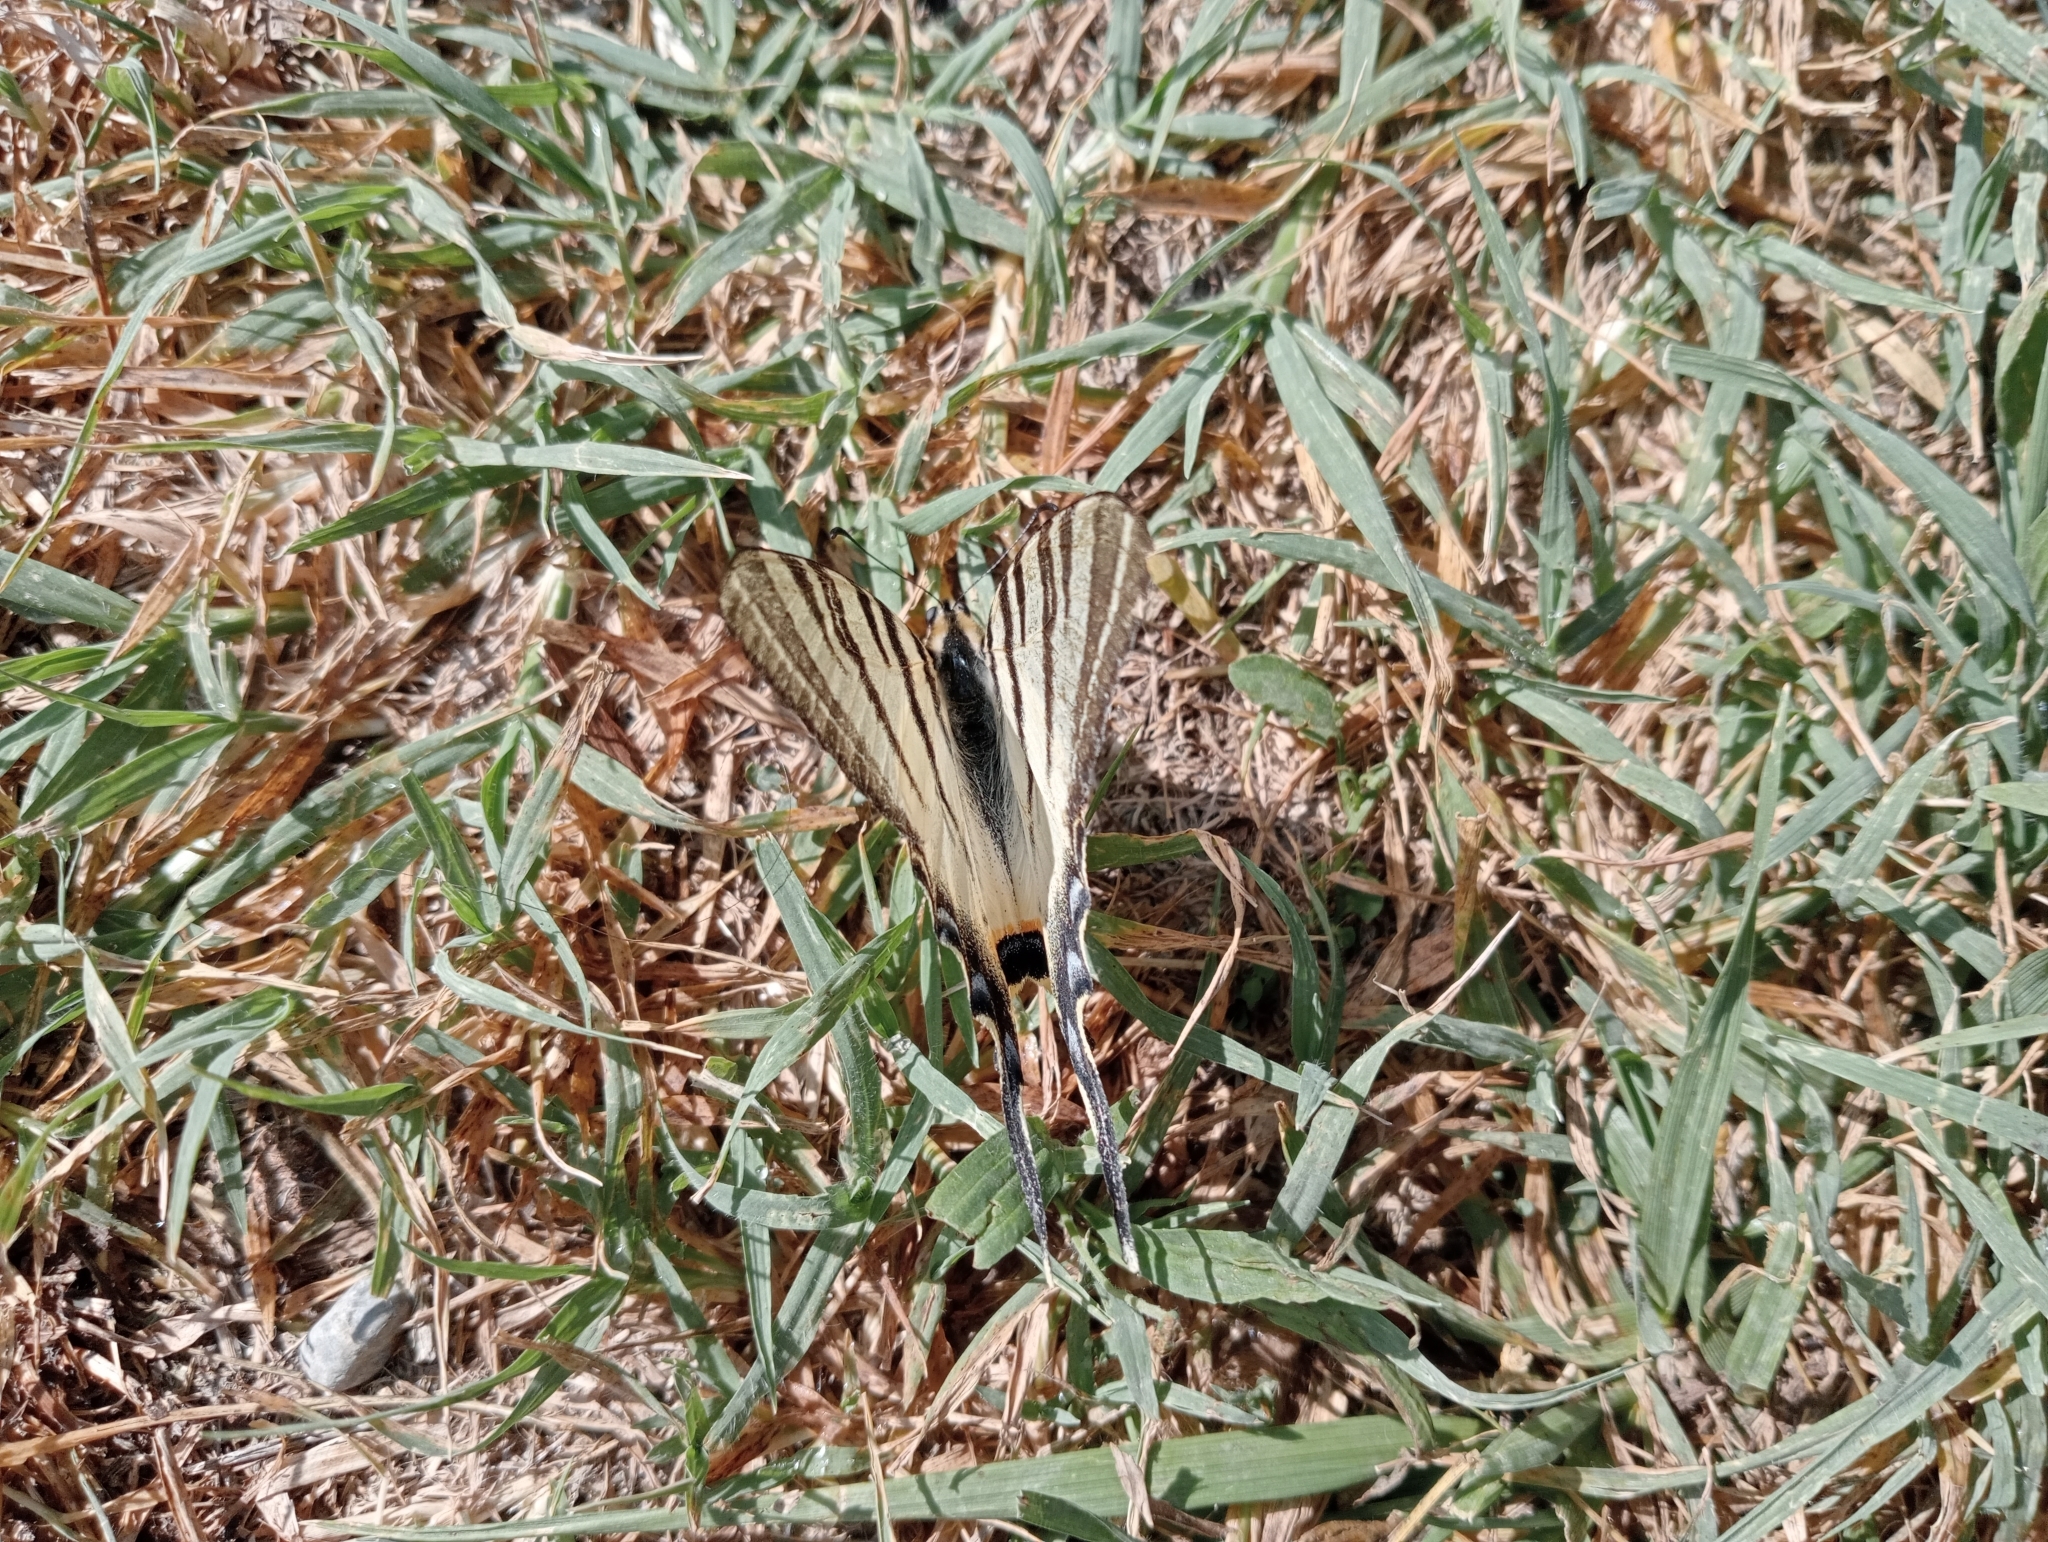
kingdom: Animalia
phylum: Arthropoda
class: Insecta
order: Lepidoptera
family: Papilionidae
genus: Iphiclides
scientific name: Iphiclides podalirius
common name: Scarce swallowtail
